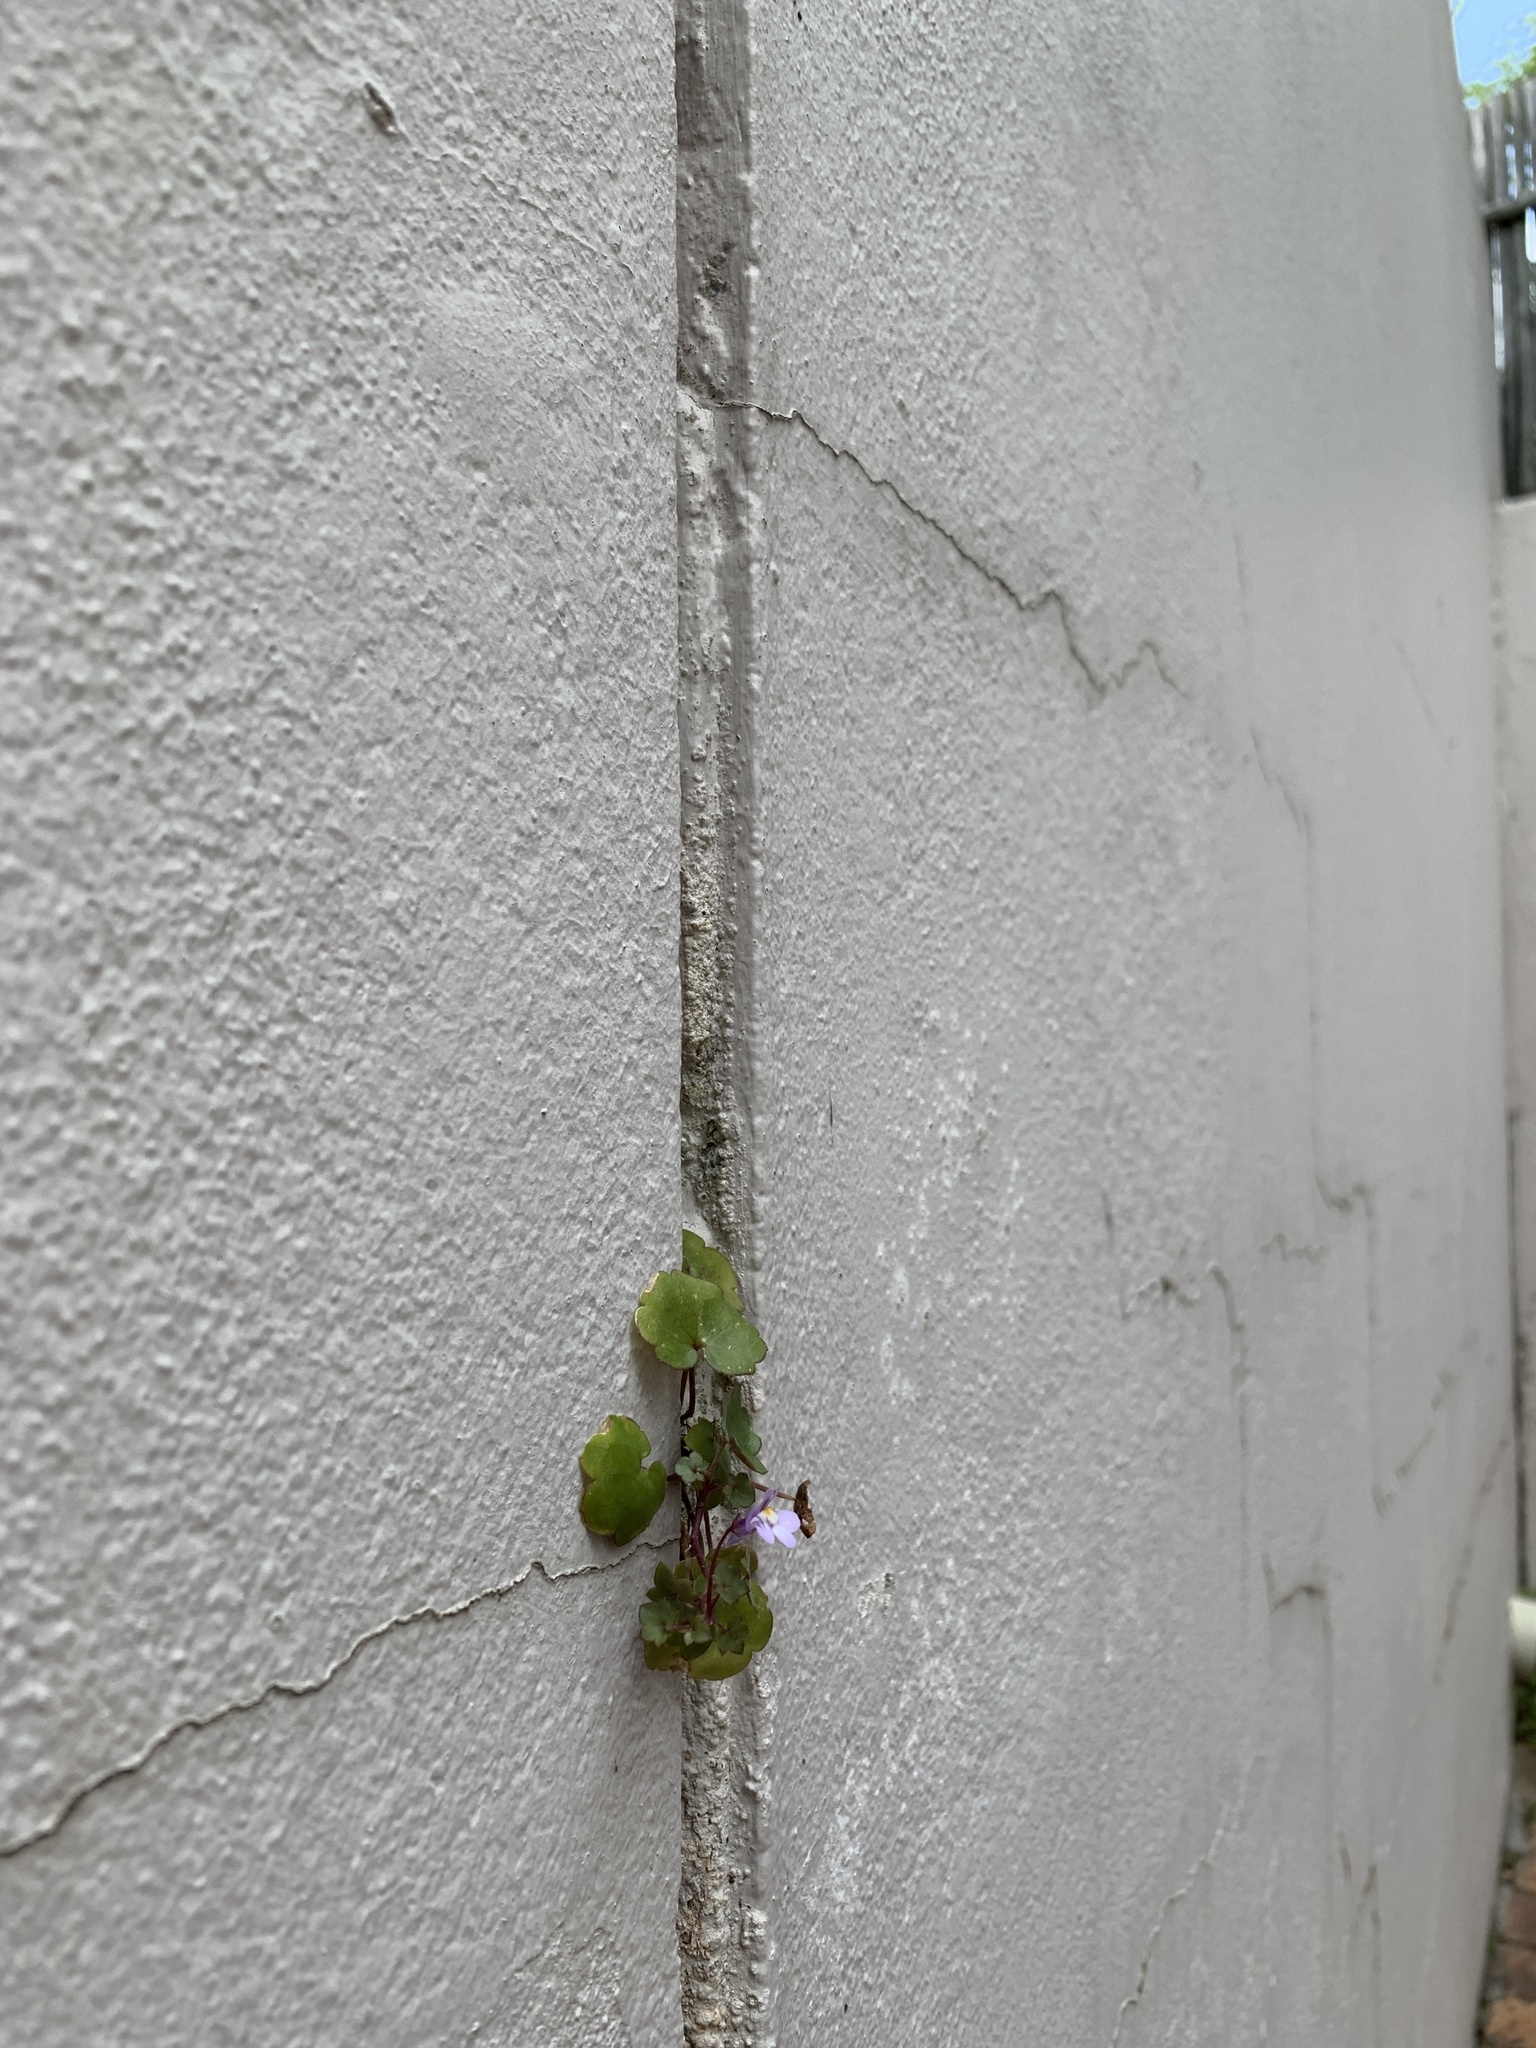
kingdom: Plantae
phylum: Tracheophyta
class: Magnoliopsida
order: Lamiales
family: Plantaginaceae
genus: Cymbalaria
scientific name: Cymbalaria muralis
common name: Ivy-leaved toadflax
